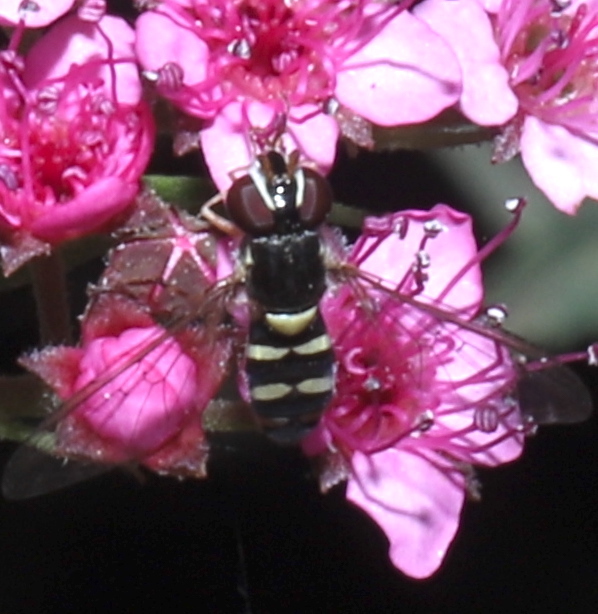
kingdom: Animalia
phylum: Arthropoda
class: Insecta
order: Diptera
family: Syrphidae
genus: Allograpta
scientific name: Allograpta hortensis
